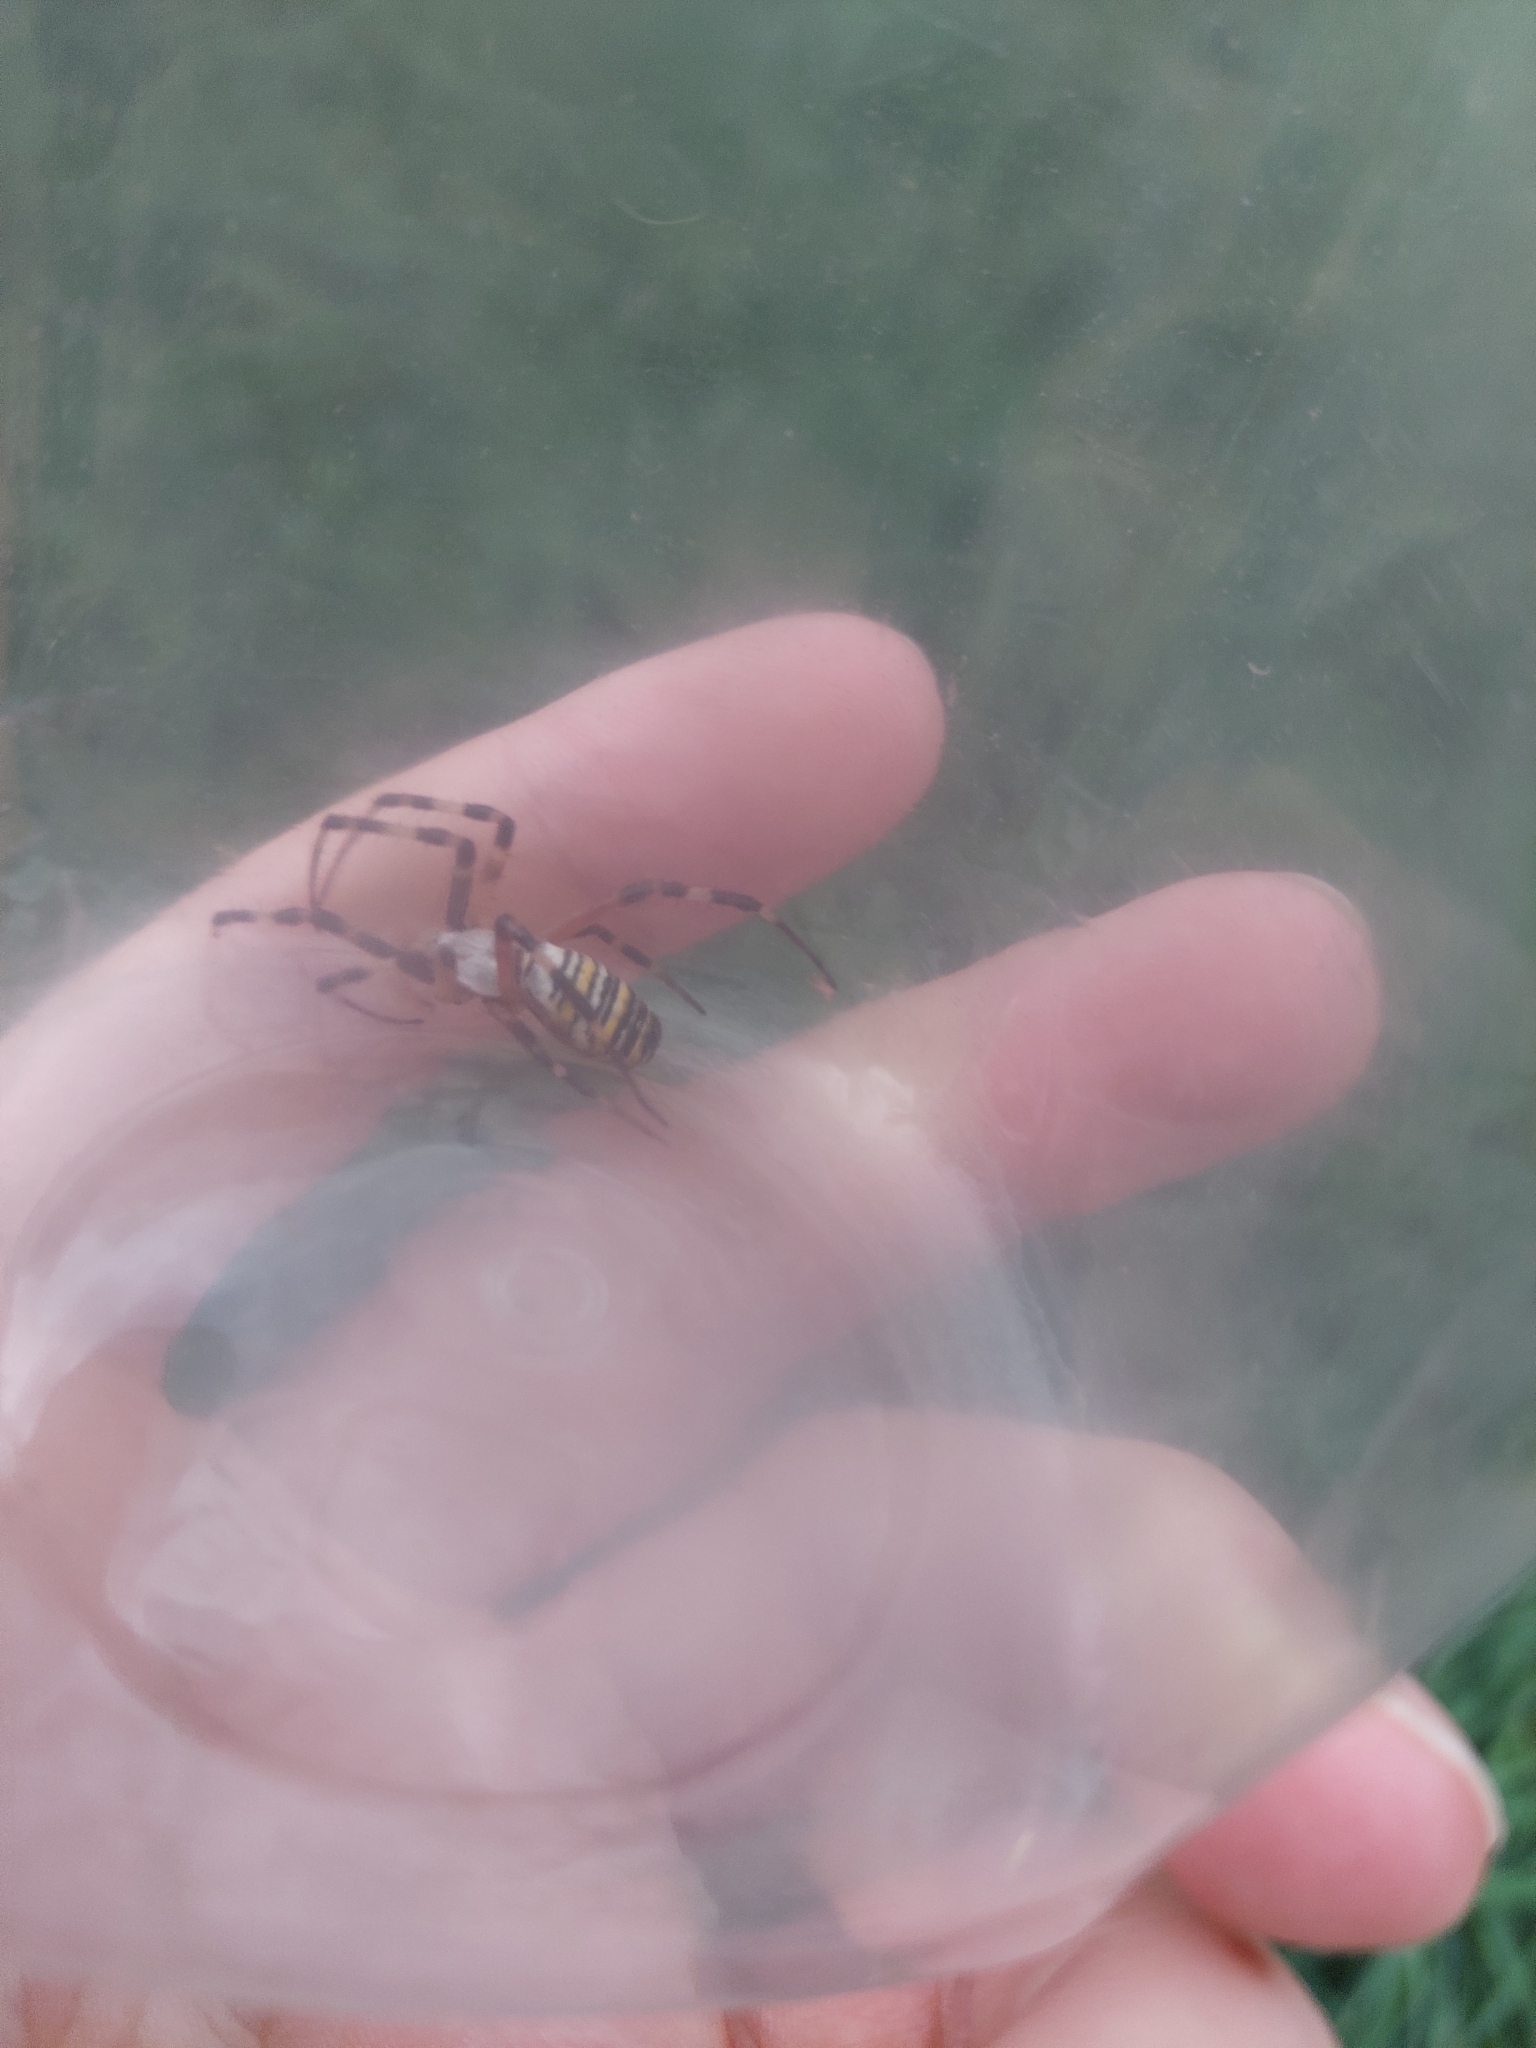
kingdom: Animalia
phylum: Arthropoda
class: Arachnida
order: Araneae
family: Araneidae
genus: Argiope
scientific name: Argiope bruennichi
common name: Wasp spider
